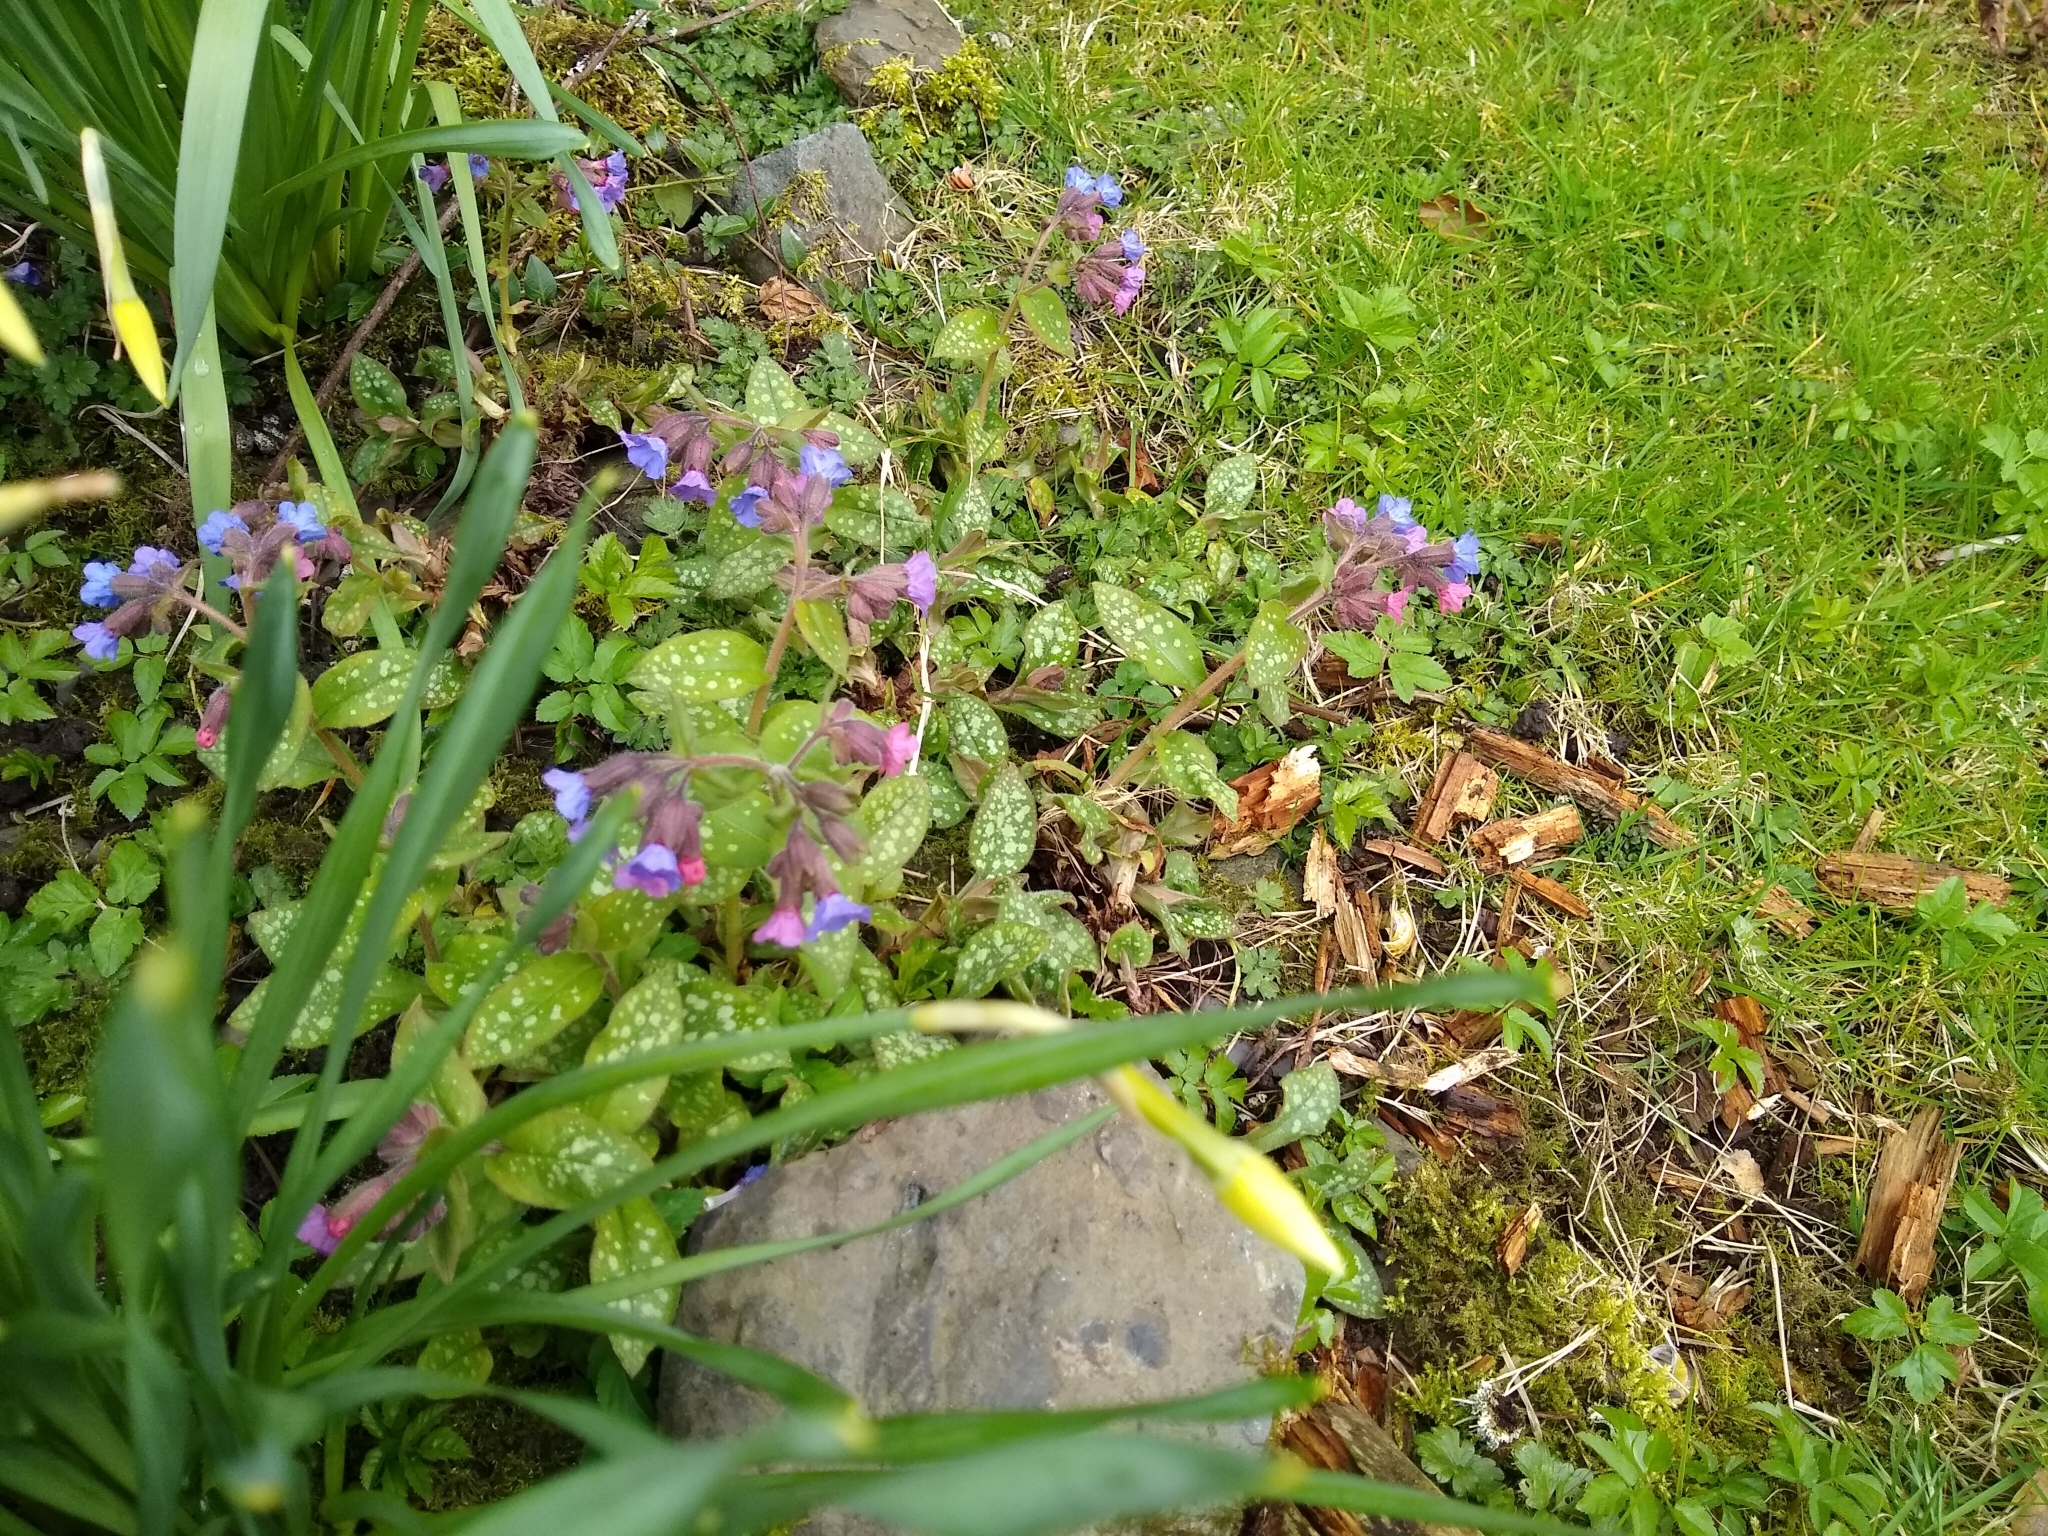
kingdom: Plantae
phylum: Tracheophyta
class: Magnoliopsida
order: Boraginales
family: Boraginaceae
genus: Pulmonaria
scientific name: Pulmonaria officinalis
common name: Lungwort
